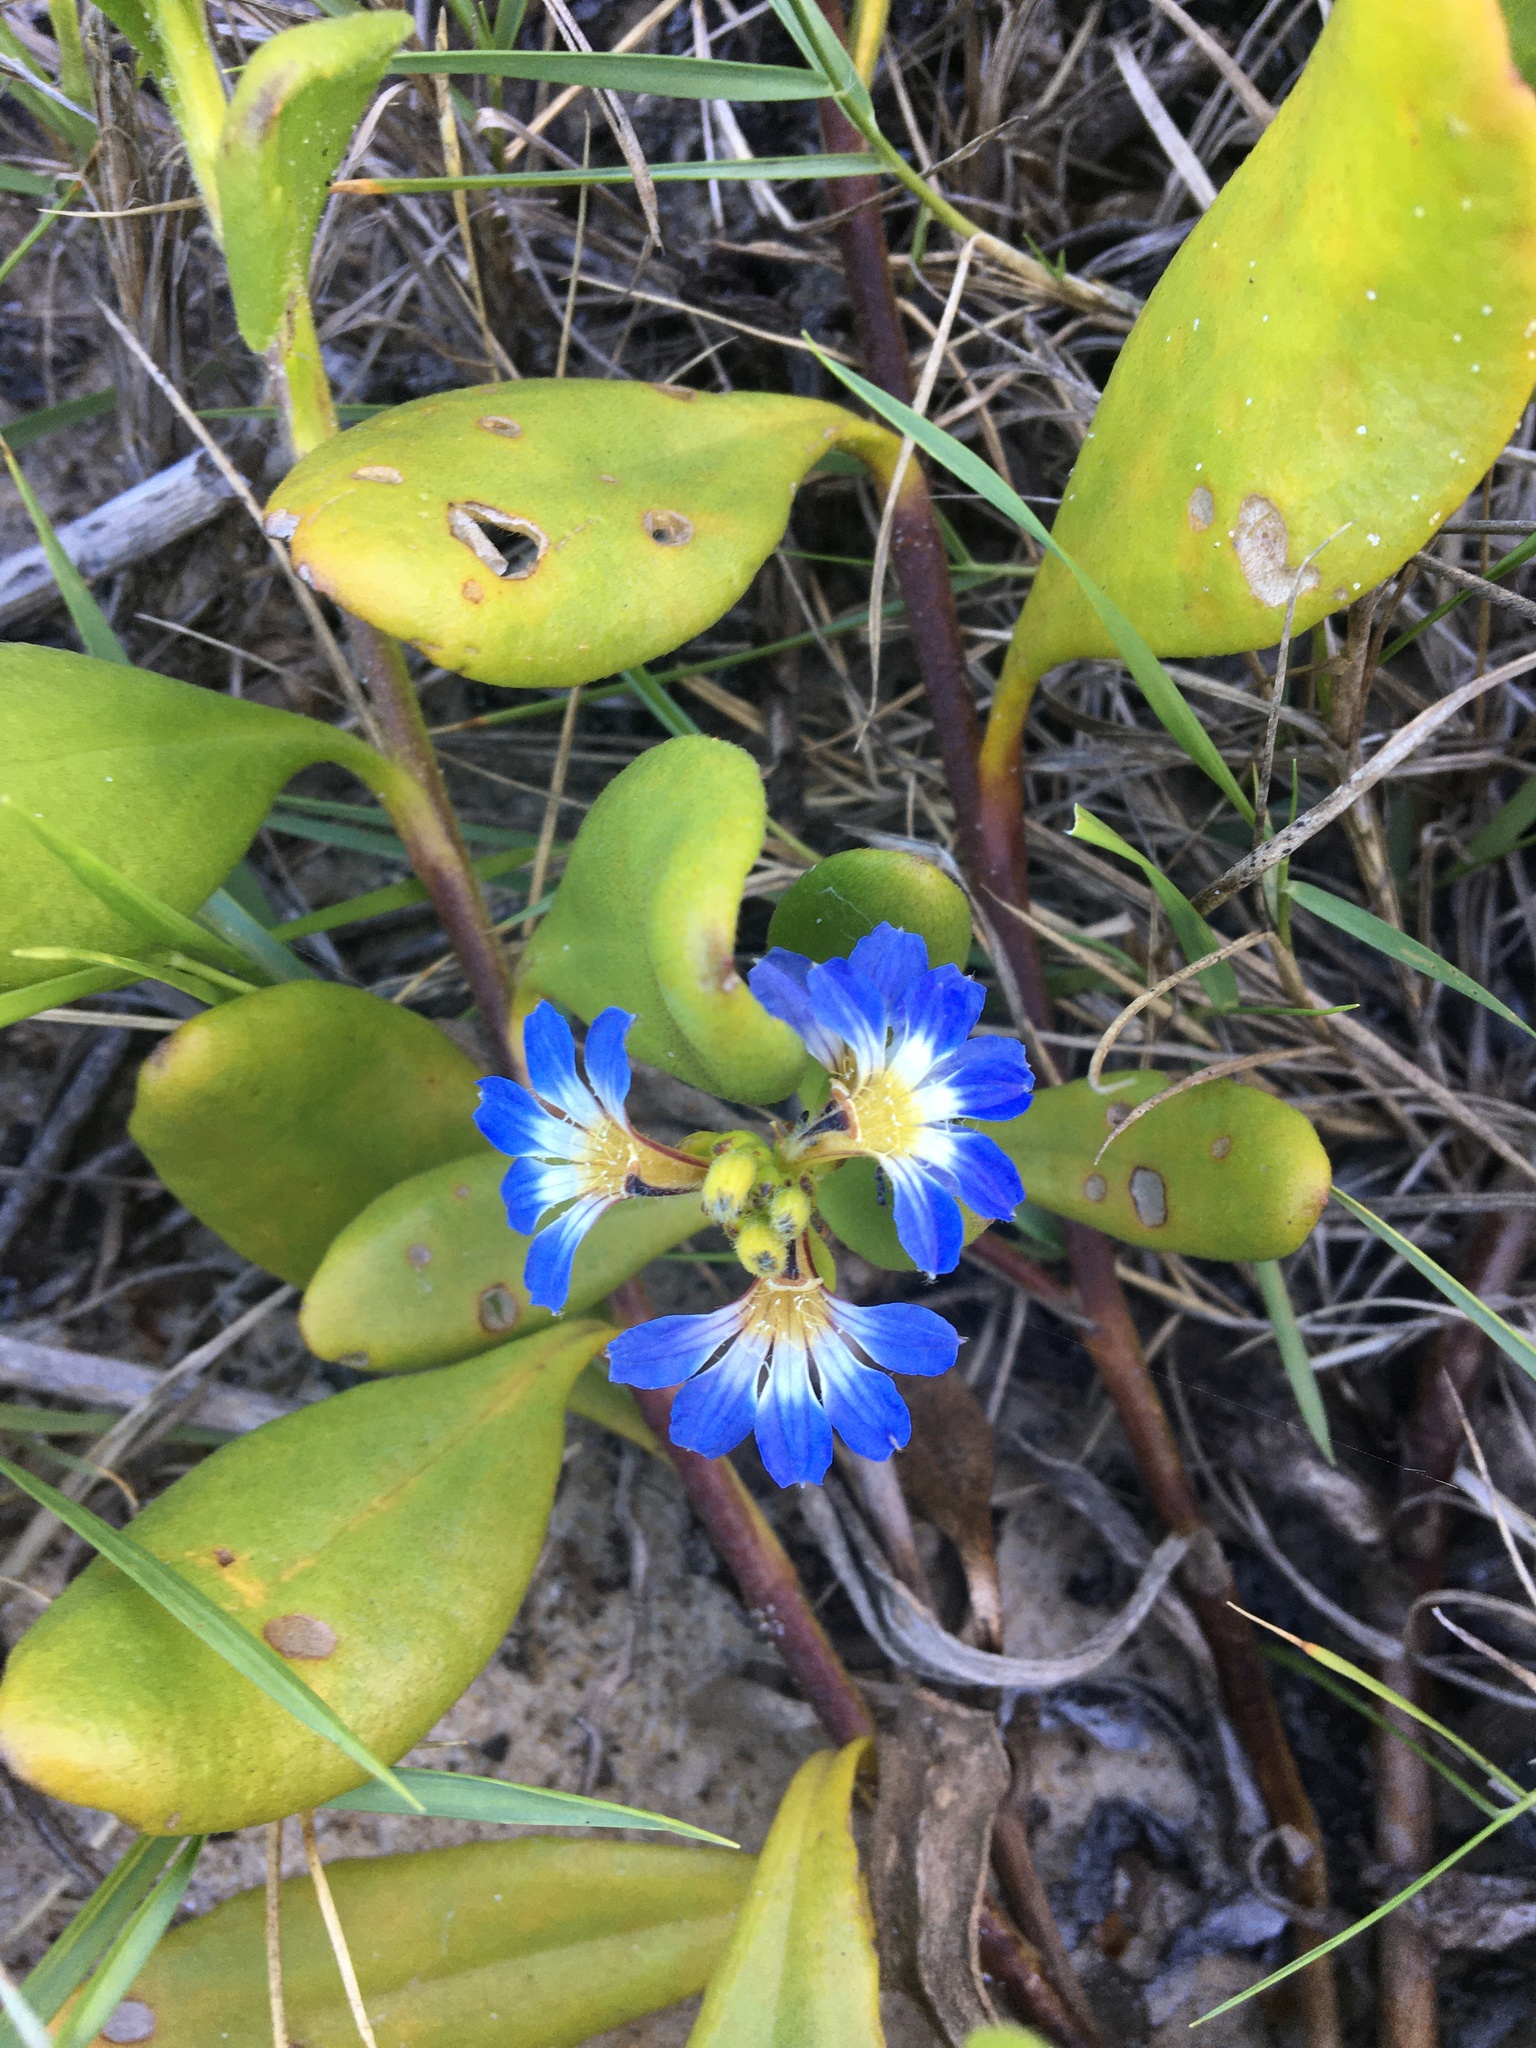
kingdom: Plantae
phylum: Tracheophyta
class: Magnoliopsida
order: Asterales
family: Goodeniaceae
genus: Scaevola
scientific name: Scaevola calendulacea
